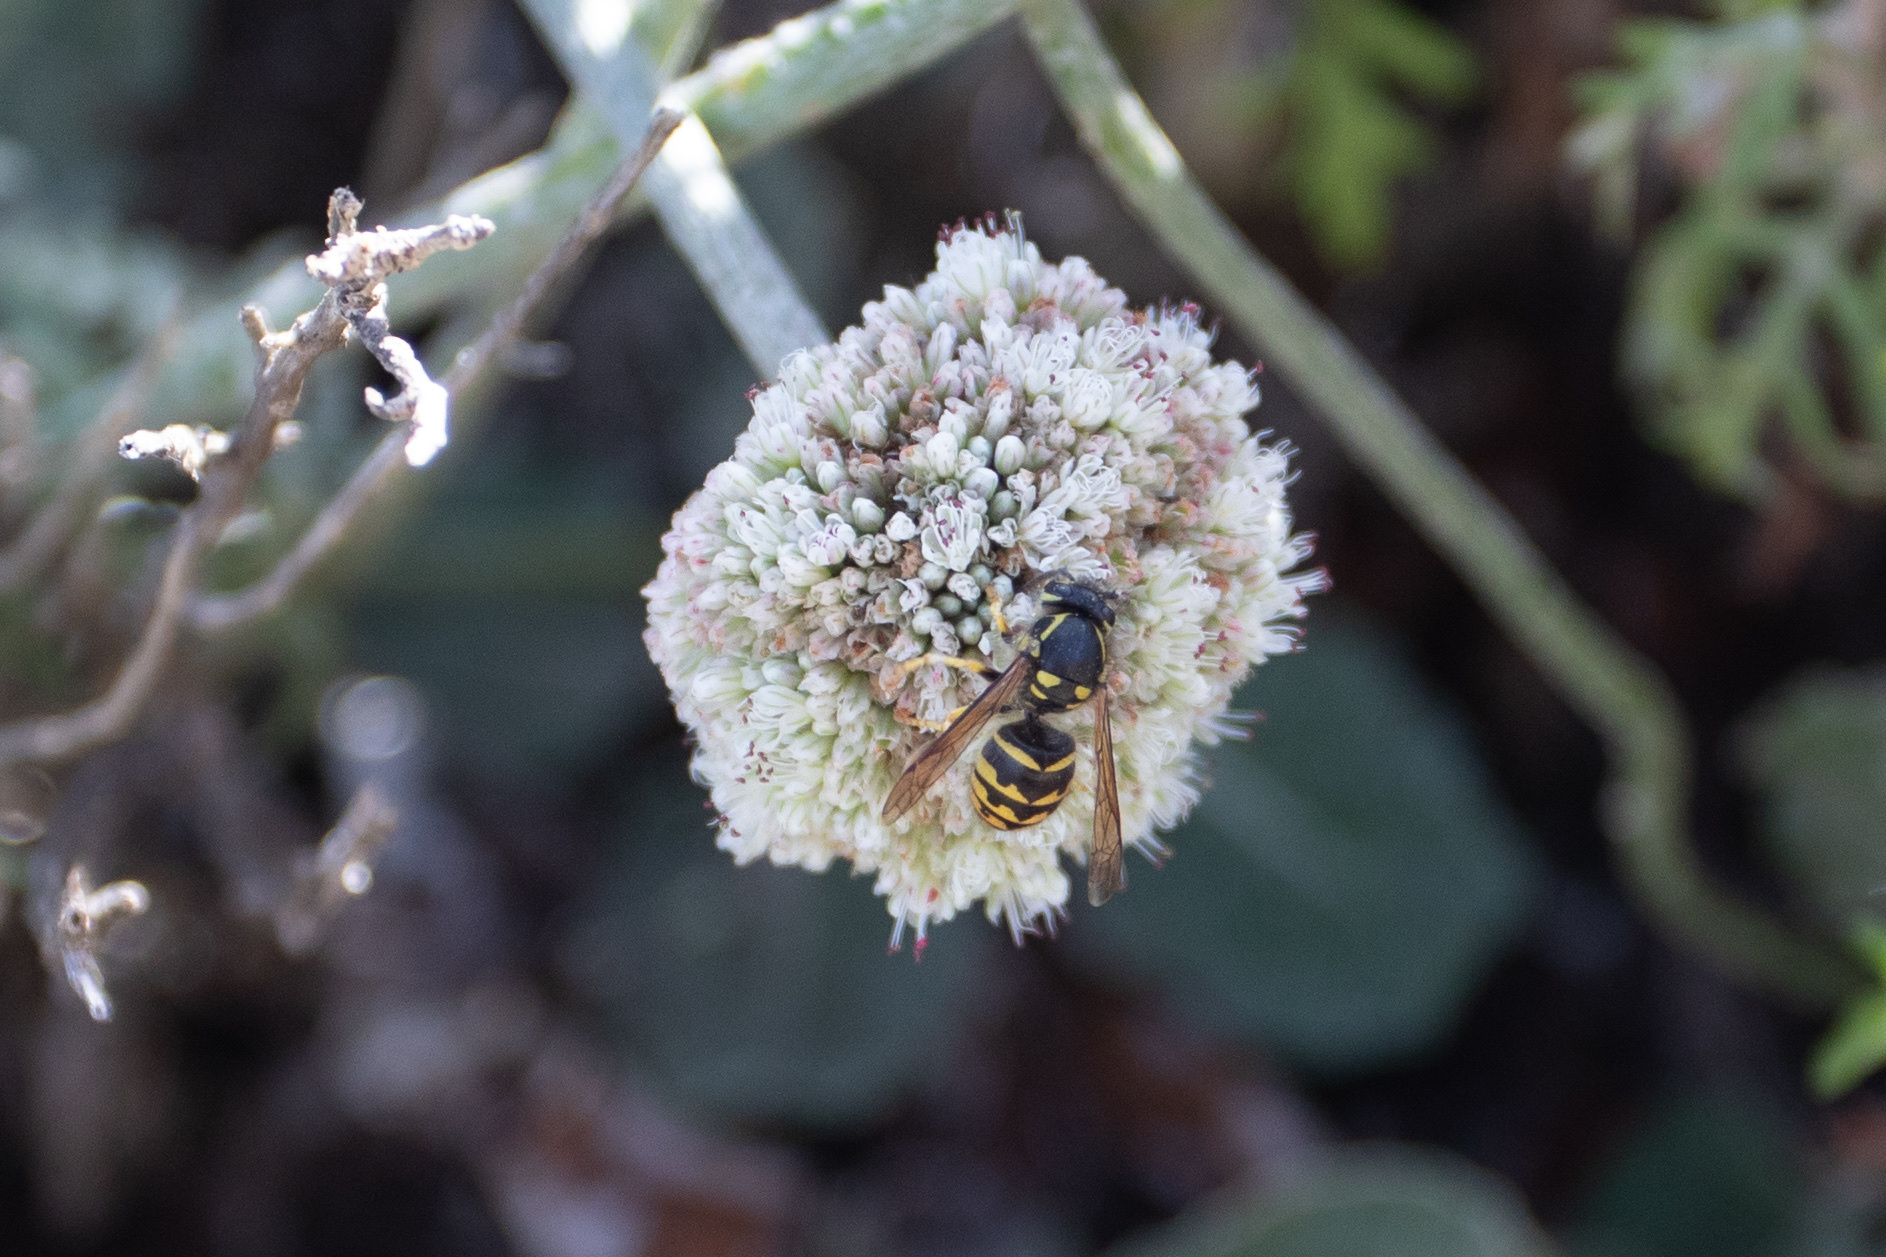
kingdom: Animalia
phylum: Arthropoda
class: Insecta
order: Hymenoptera
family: Vespidae
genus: Dolichovespula
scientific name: Dolichovespula arenaria
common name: Aerial yellowjacket
